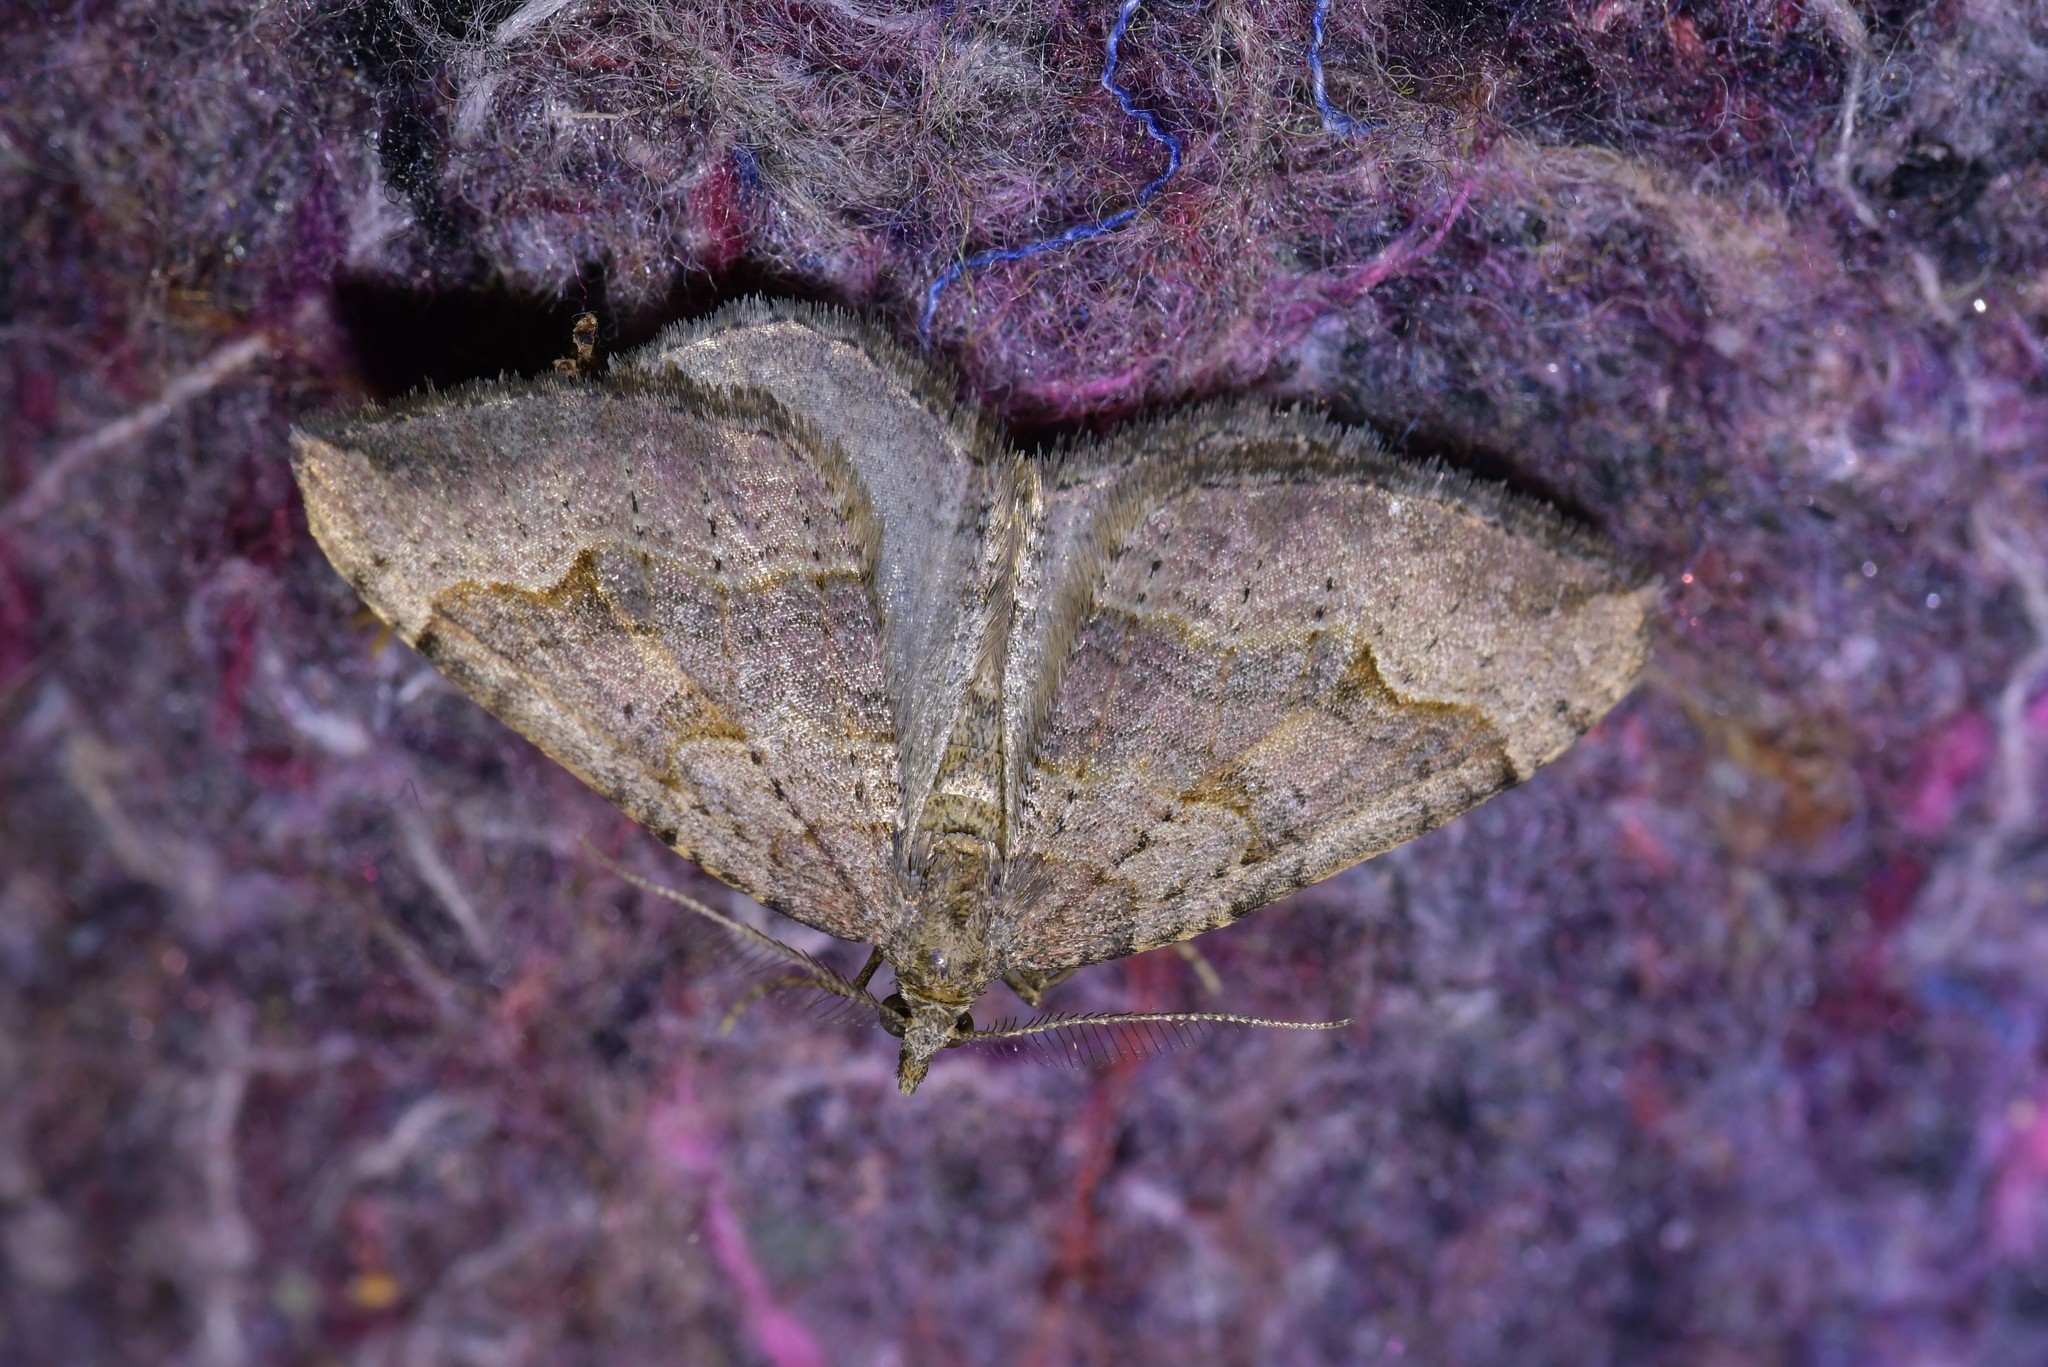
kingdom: Animalia
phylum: Arthropoda
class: Insecta
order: Lepidoptera
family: Geometridae
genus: Epyaxa
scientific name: Epyaxa rosearia
